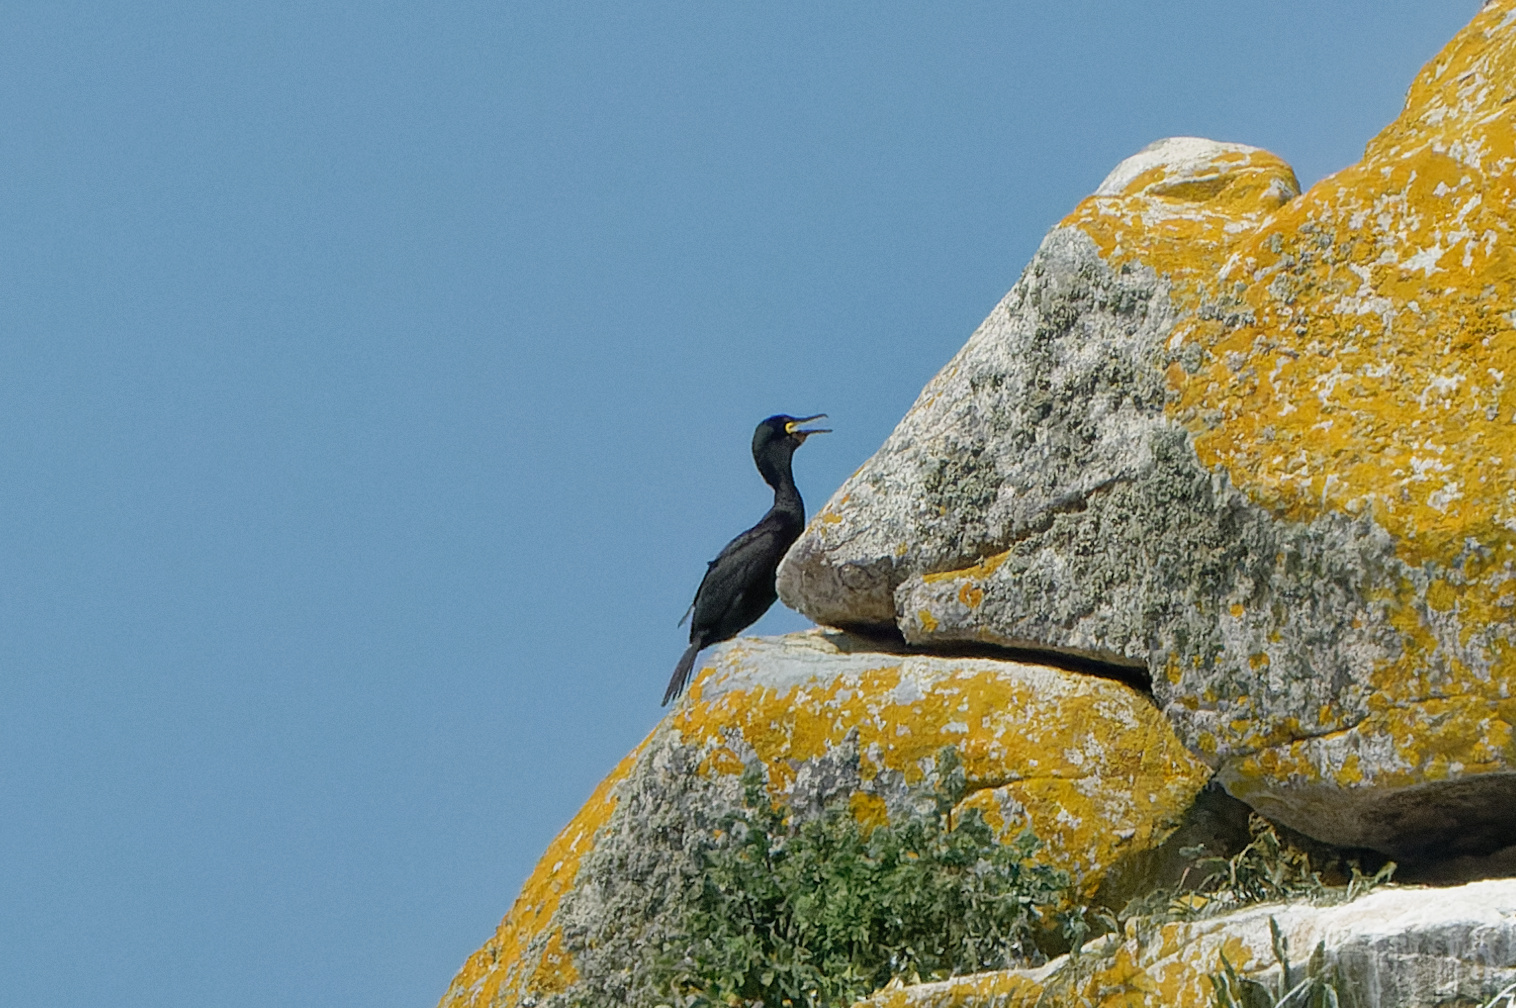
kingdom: Animalia
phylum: Chordata
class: Aves
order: Suliformes
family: Phalacrocoracidae
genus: Phalacrocorax
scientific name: Phalacrocorax aristotelis
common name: European shag
